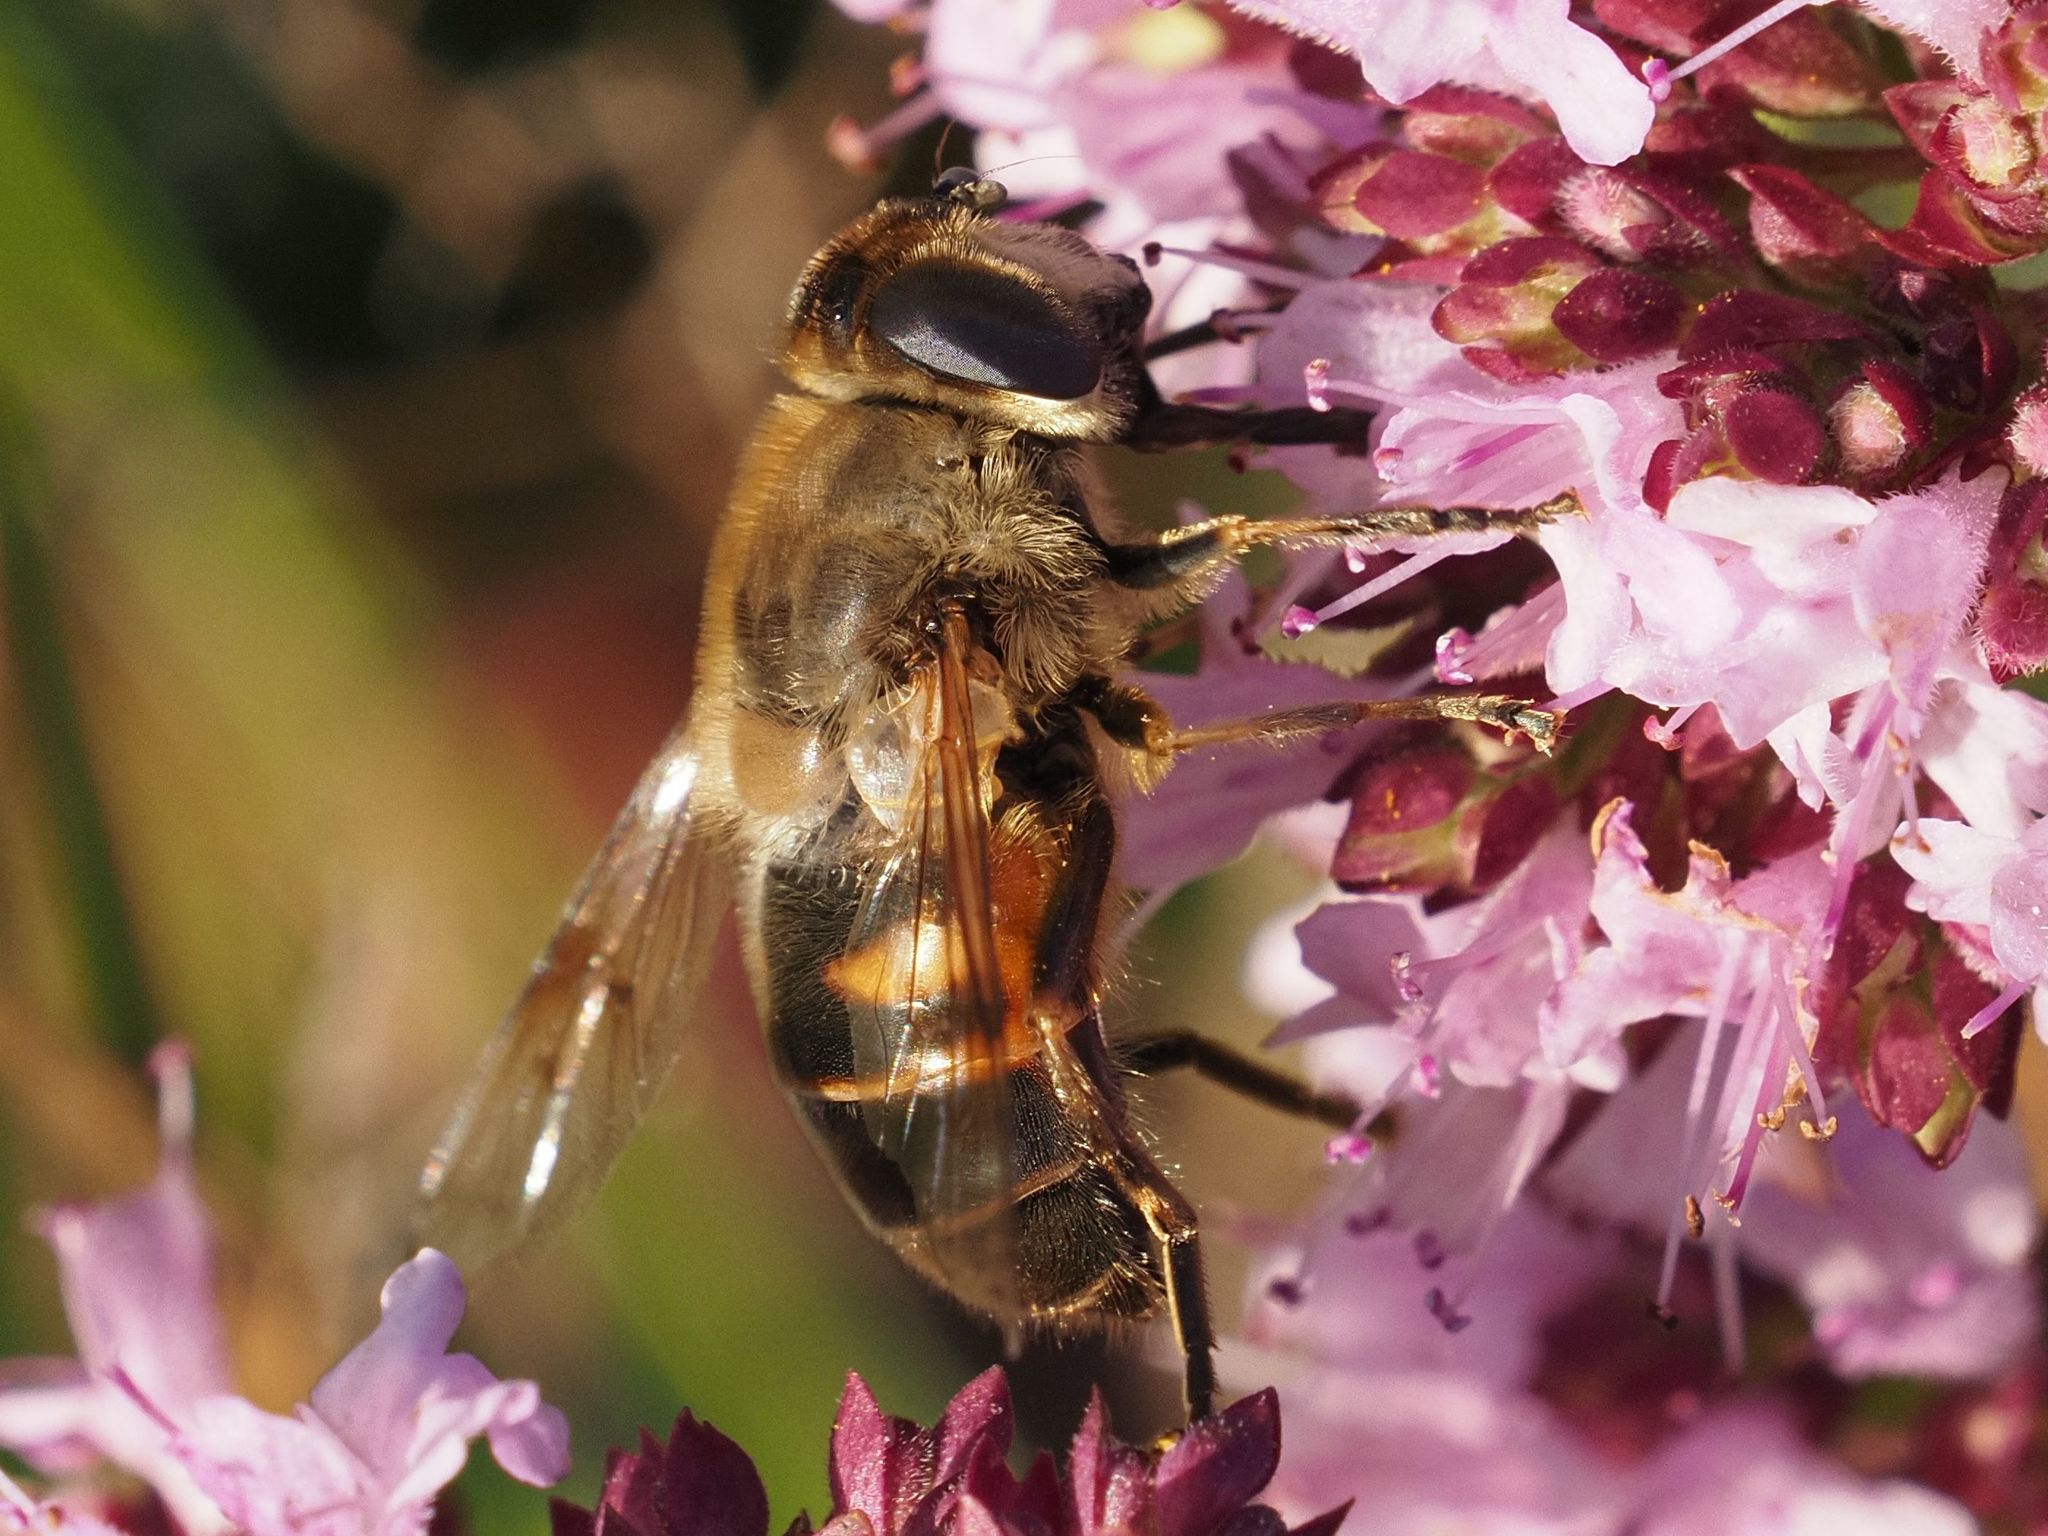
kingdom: Animalia
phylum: Arthropoda
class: Insecta
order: Diptera
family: Syrphidae
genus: Eristalis
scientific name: Eristalis tenax
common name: Drone fly
